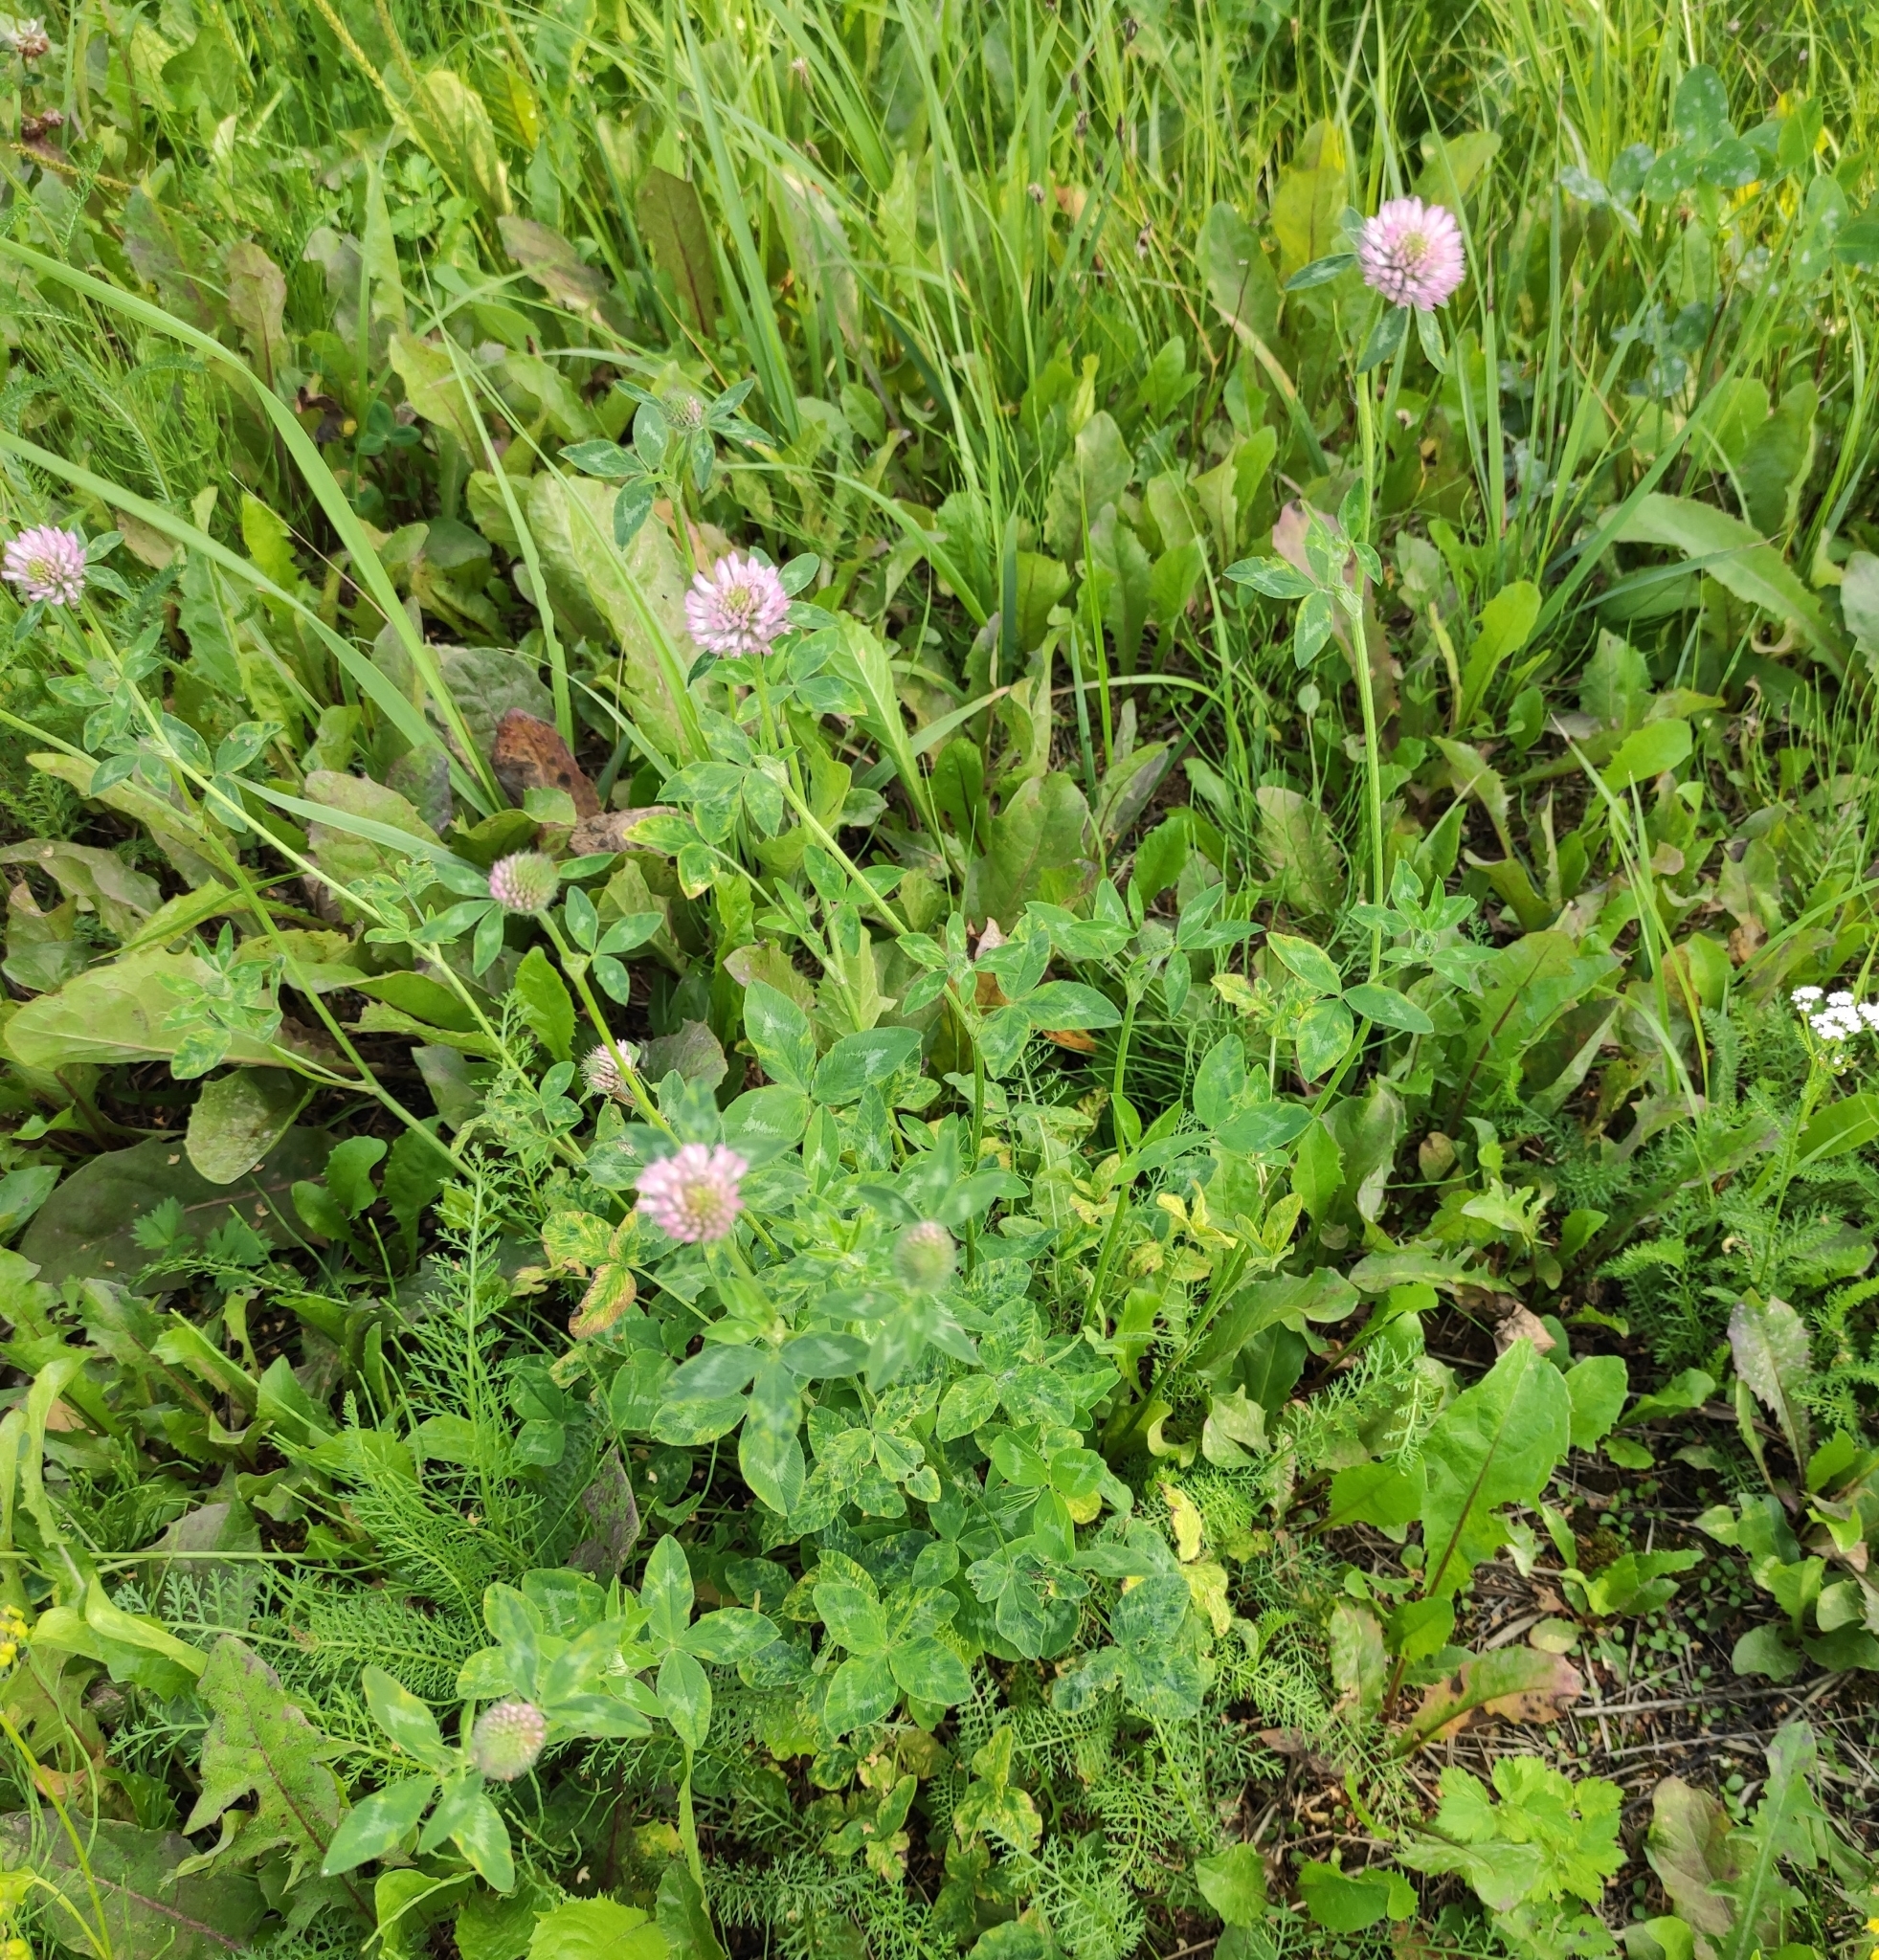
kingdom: Plantae
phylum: Tracheophyta
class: Magnoliopsida
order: Fabales
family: Fabaceae
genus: Trifolium
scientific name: Trifolium pratense
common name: Red clover
